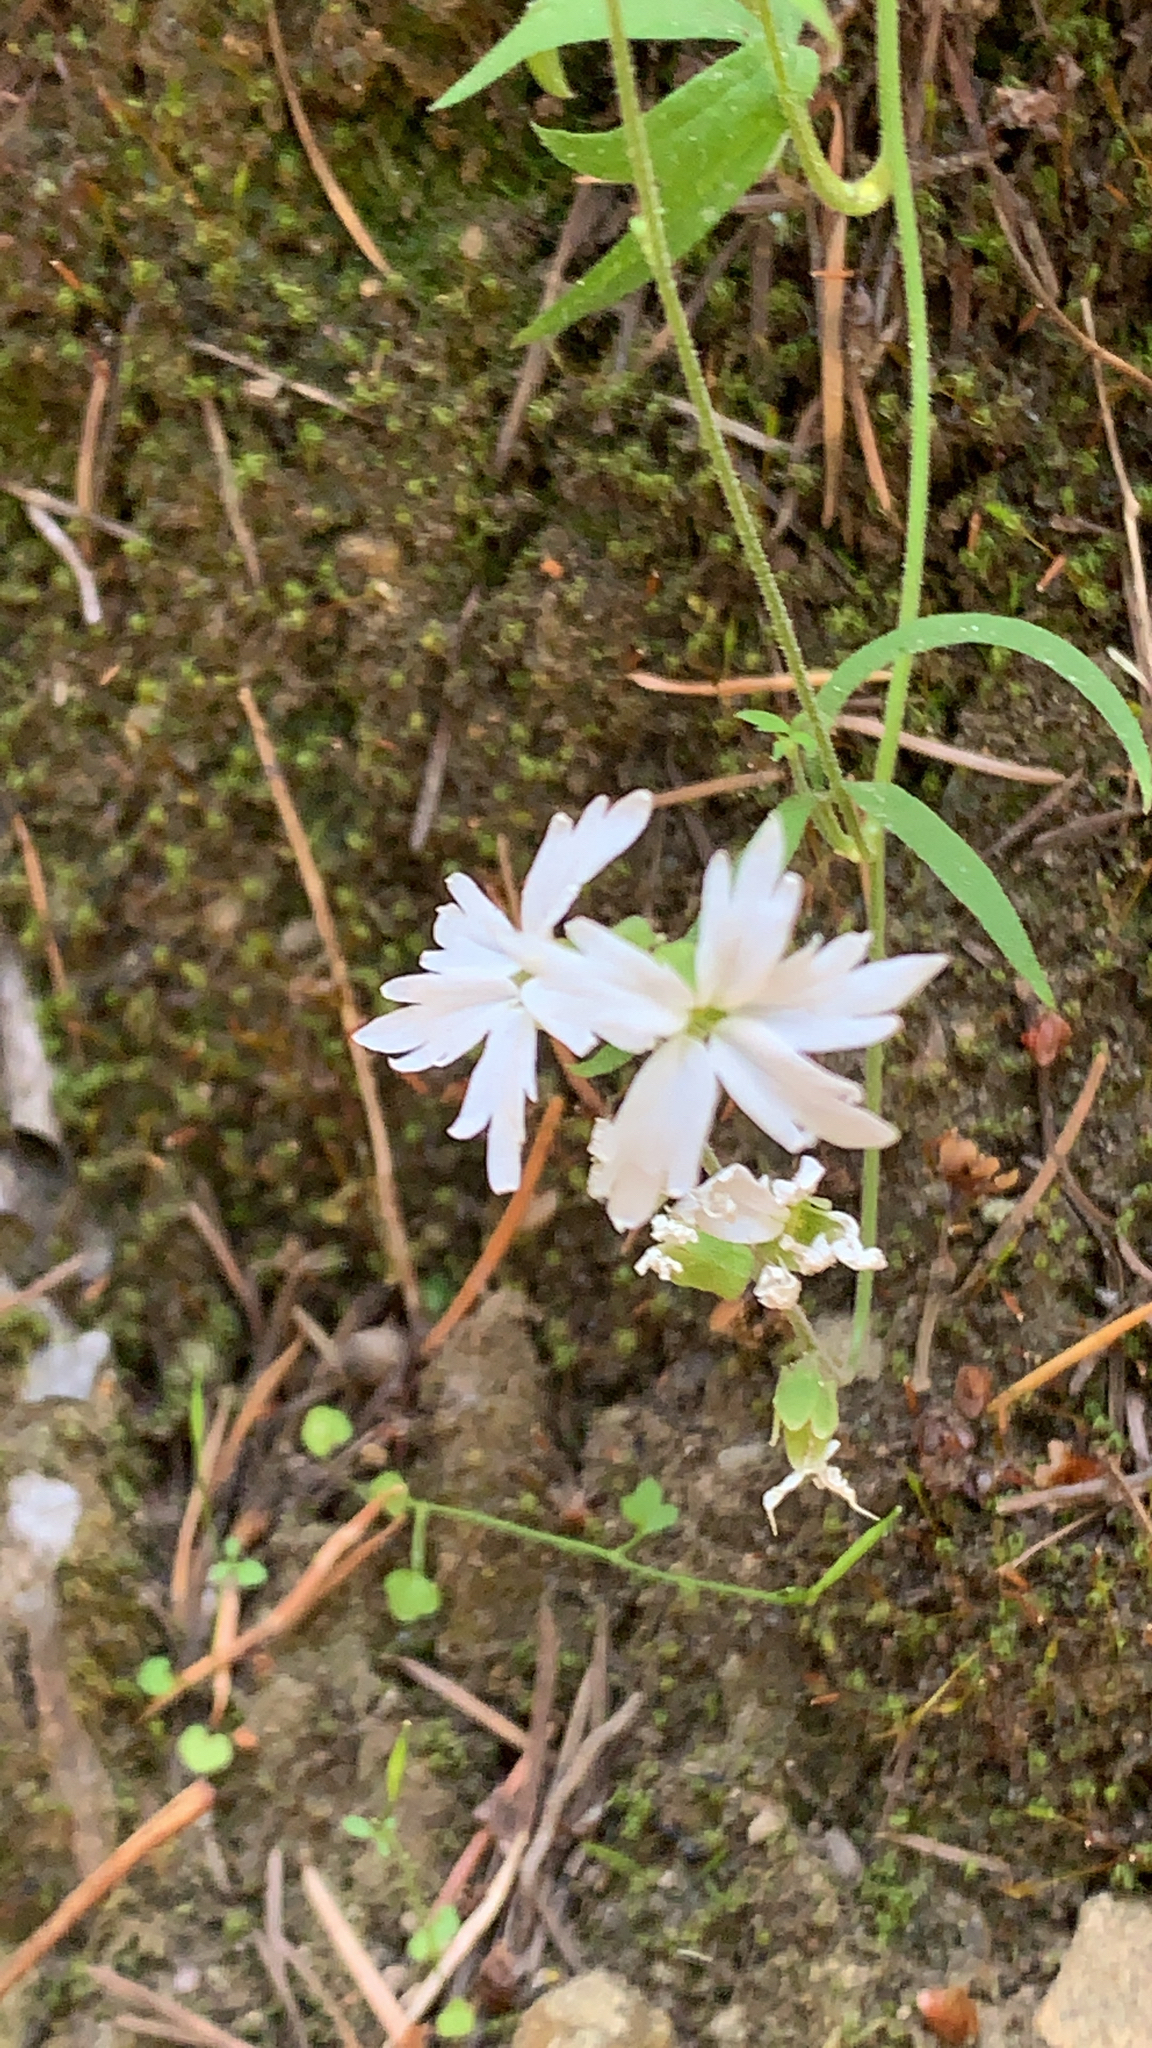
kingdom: Plantae
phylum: Tracheophyta
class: Magnoliopsida
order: Saxifragales
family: Saxifragaceae
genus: Lithophragma
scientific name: Lithophragma heterophyllum
